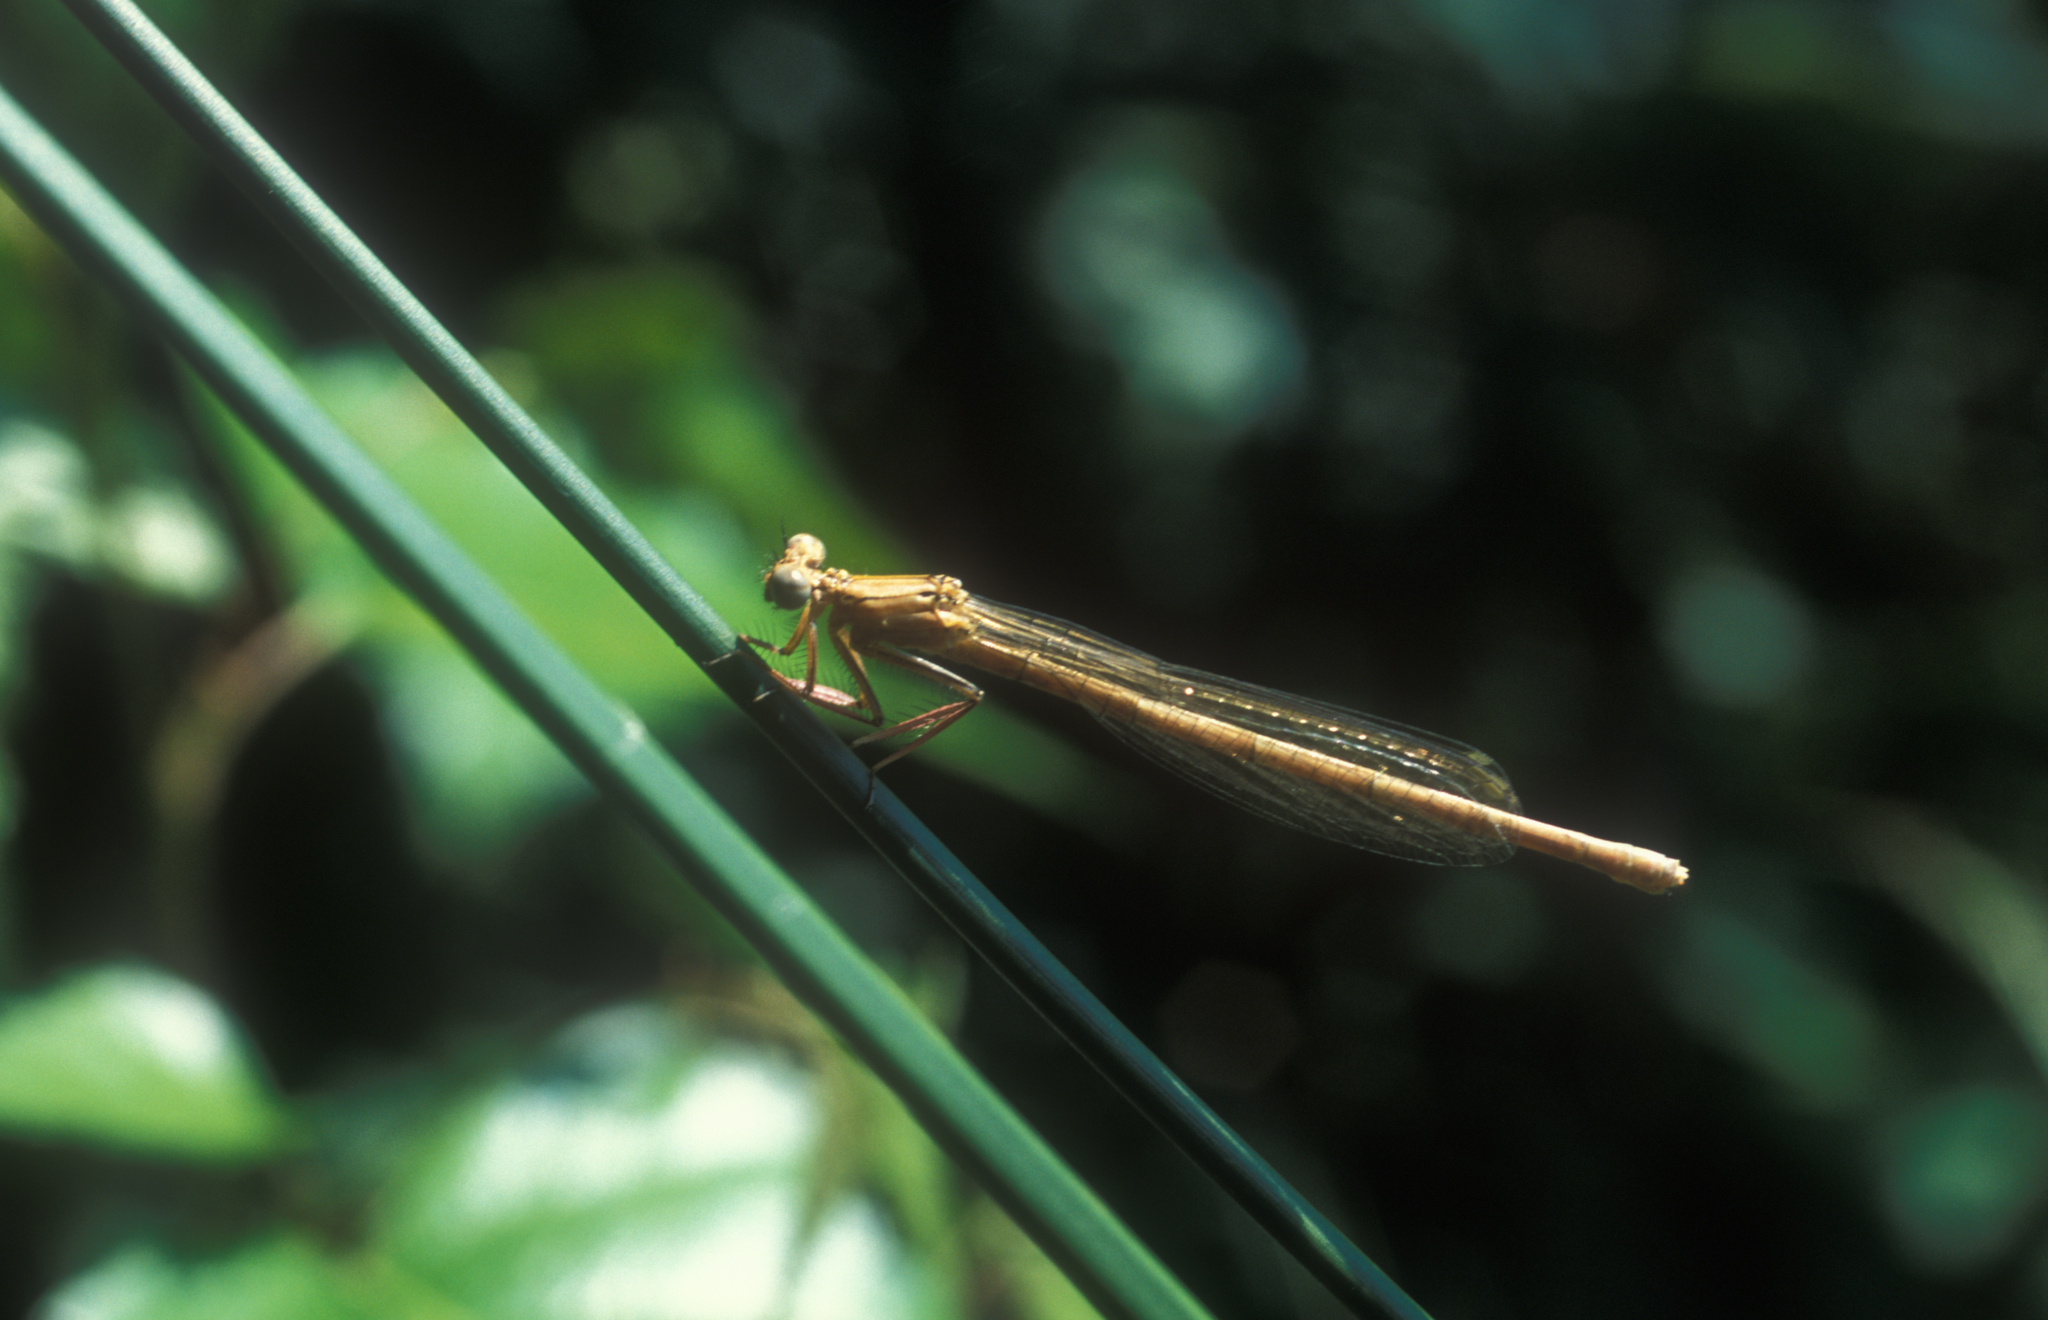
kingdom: Animalia
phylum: Arthropoda
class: Insecta
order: Odonata
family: Platycnemididae
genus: Platycnemis
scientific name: Platycnemis pennipes
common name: White-legged damselfly
